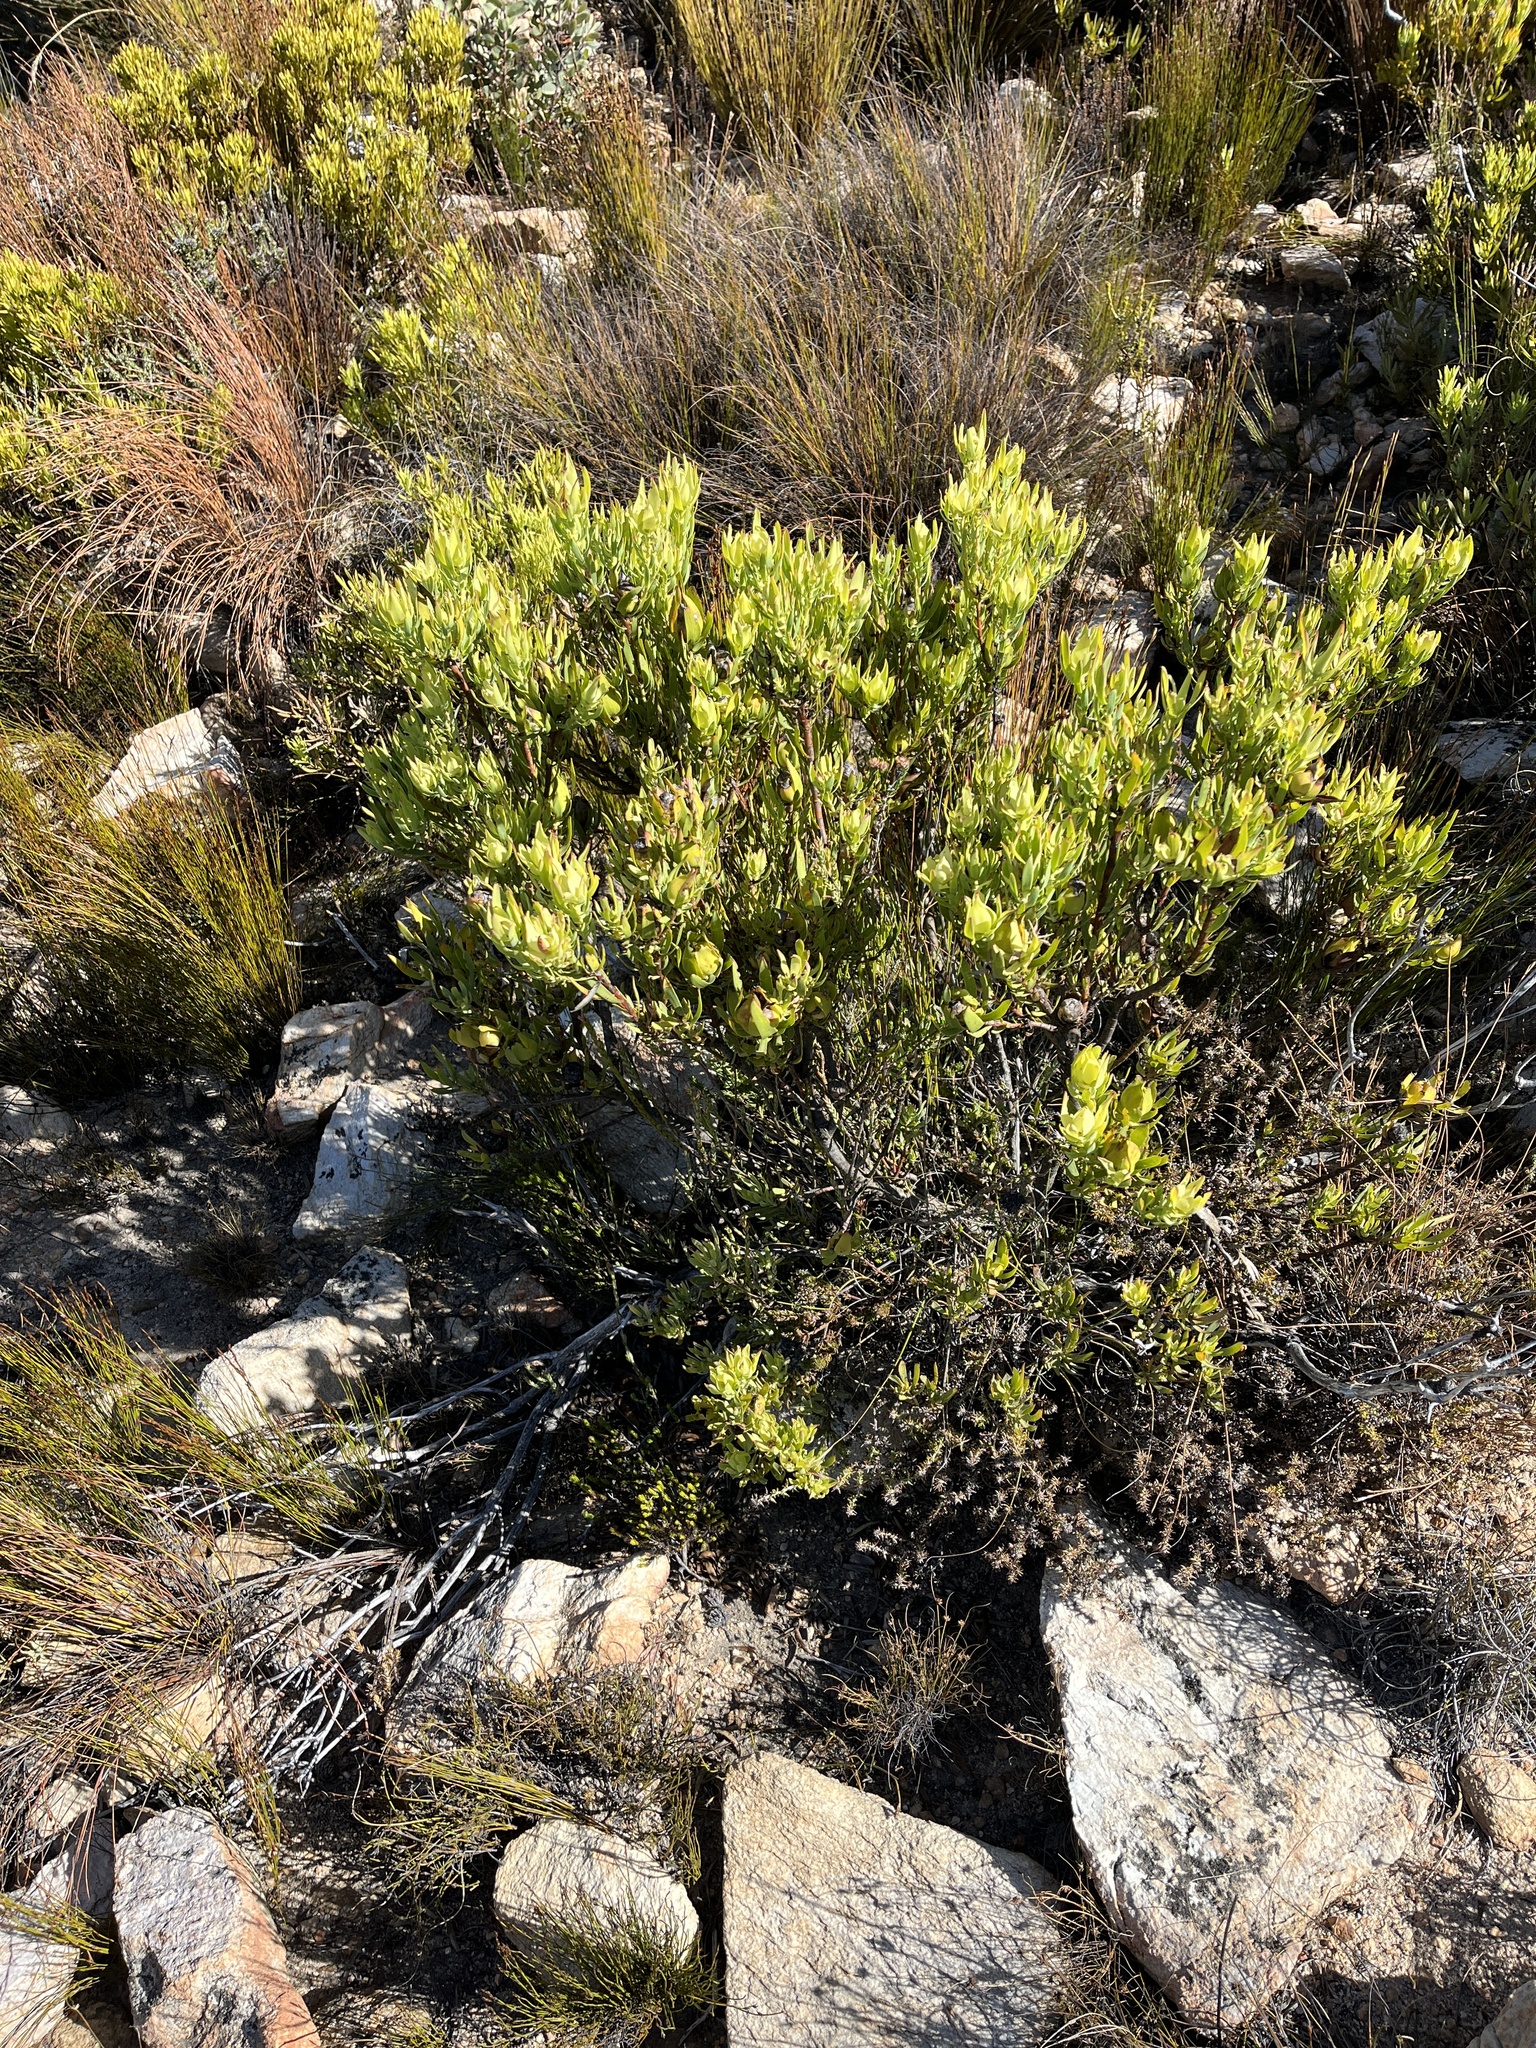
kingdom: Plantae
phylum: Tracheophyta
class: Magnoliopsida
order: Proteales
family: Proteaceae
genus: Leucadendron
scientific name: Leucadendron salignum
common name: Common sunshine conebush
